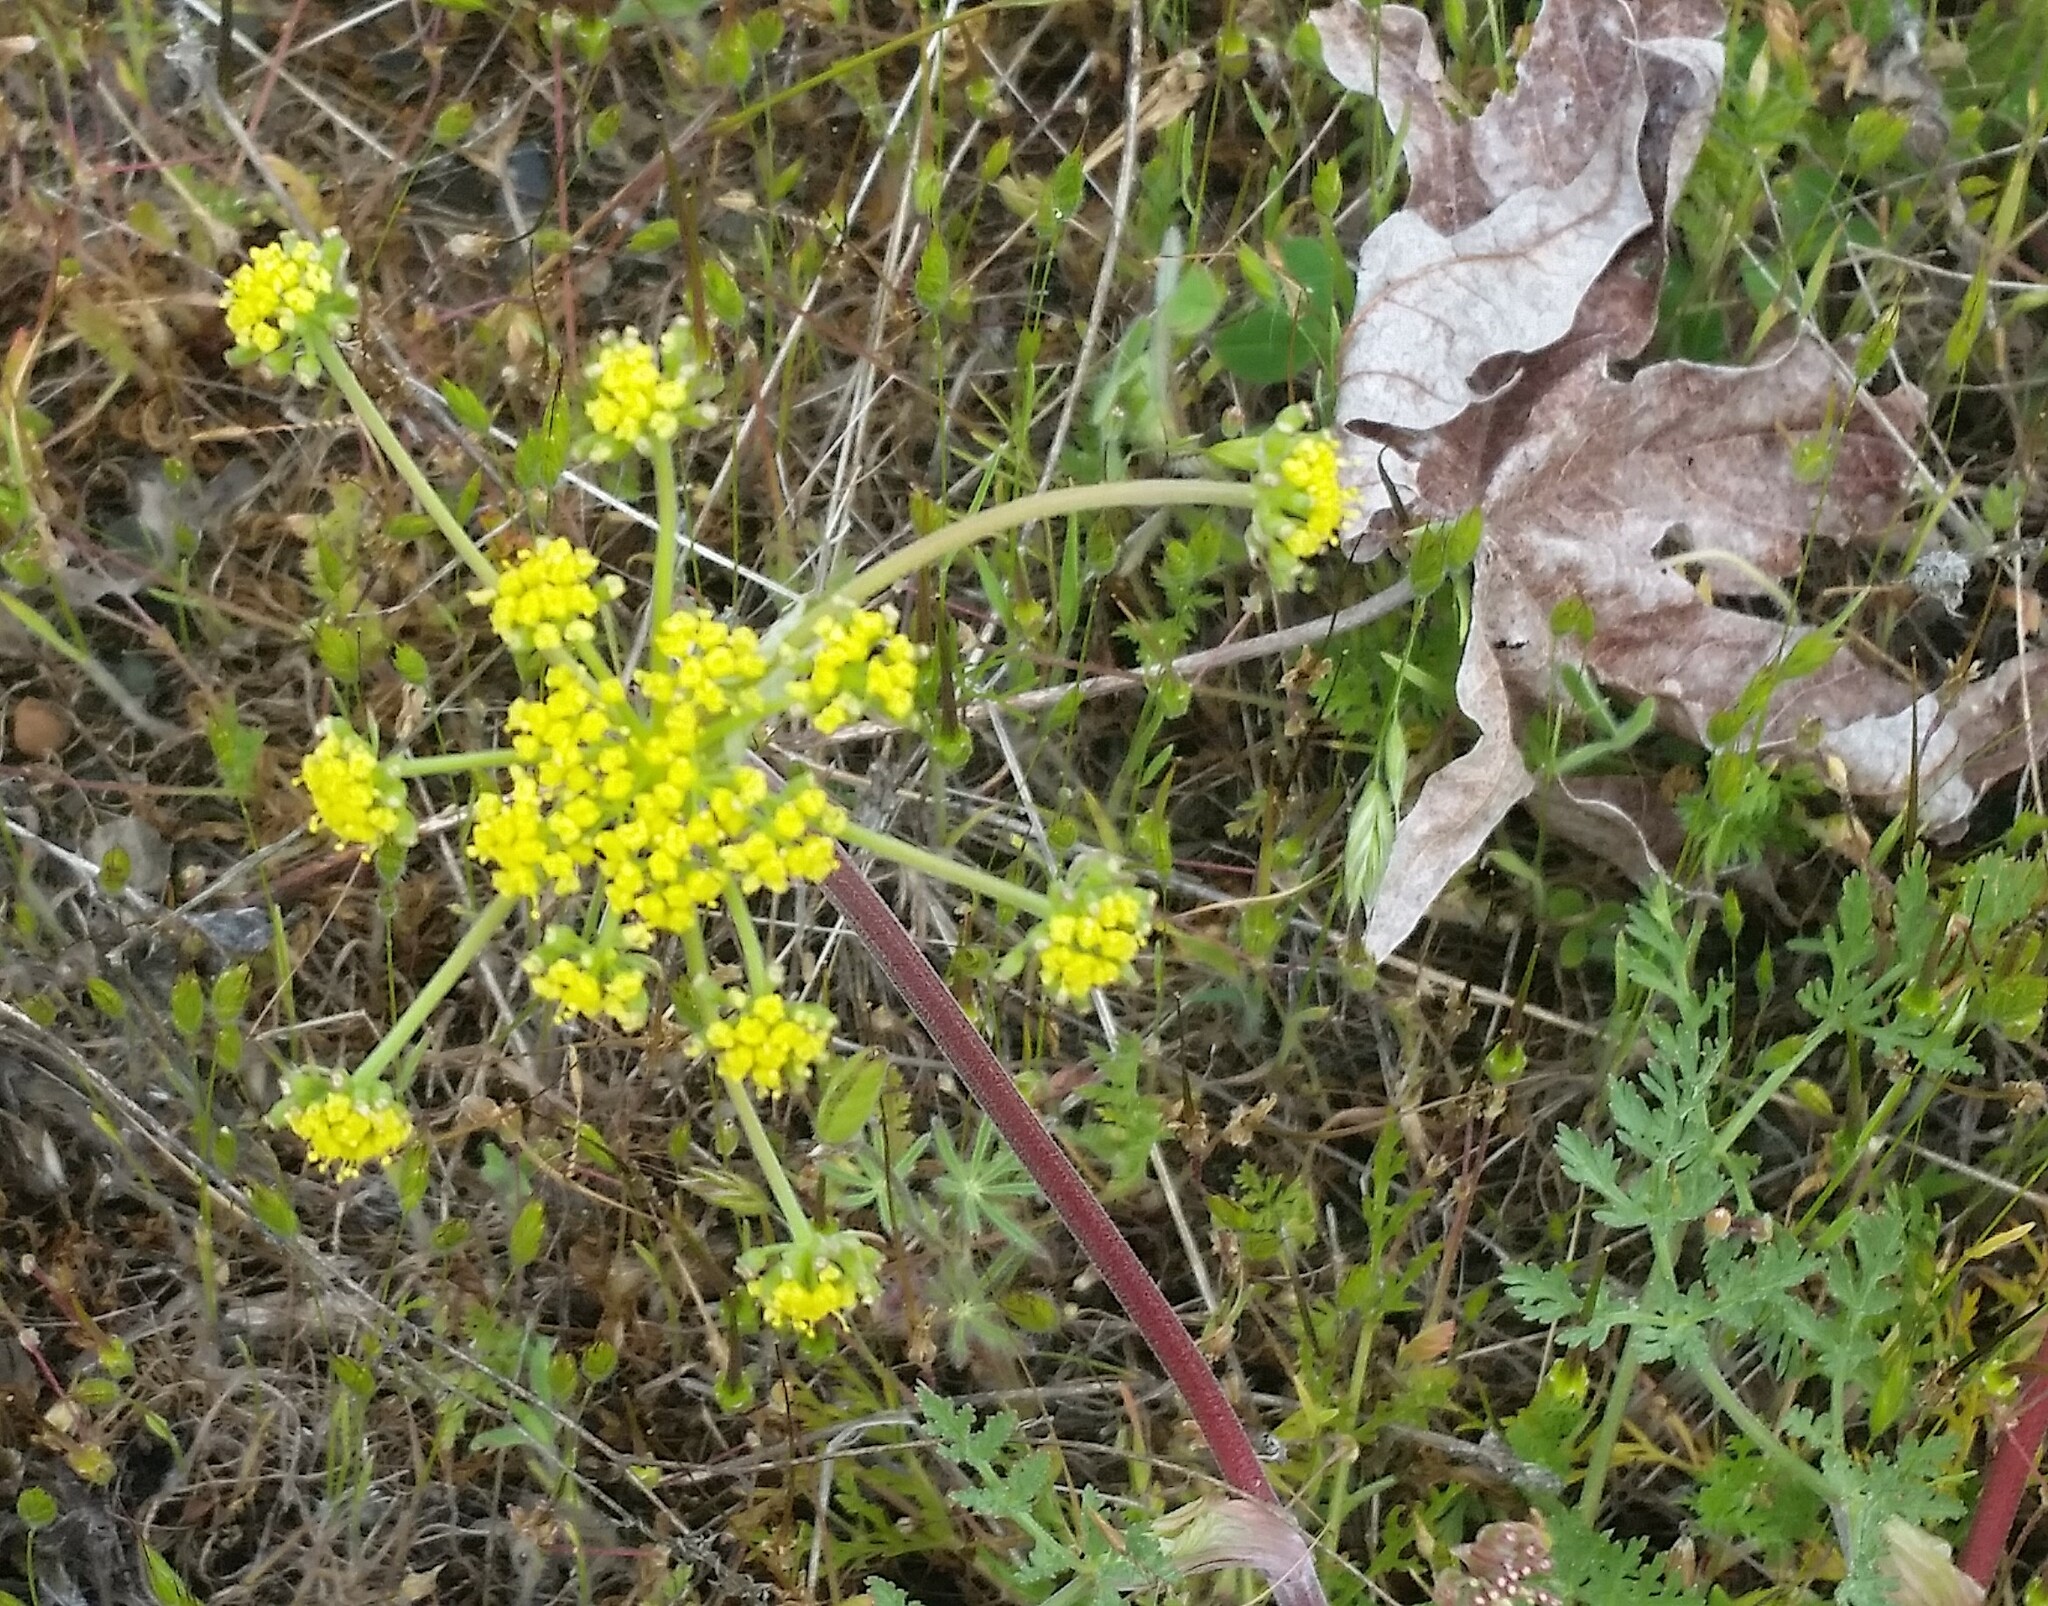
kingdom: Plantae
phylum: Tracheophyta
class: Magnoliopsida
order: Apiales
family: Apiaceae
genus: Lomatium
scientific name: Lomatium utriculatum
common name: Fine-leaf desert-parsley
